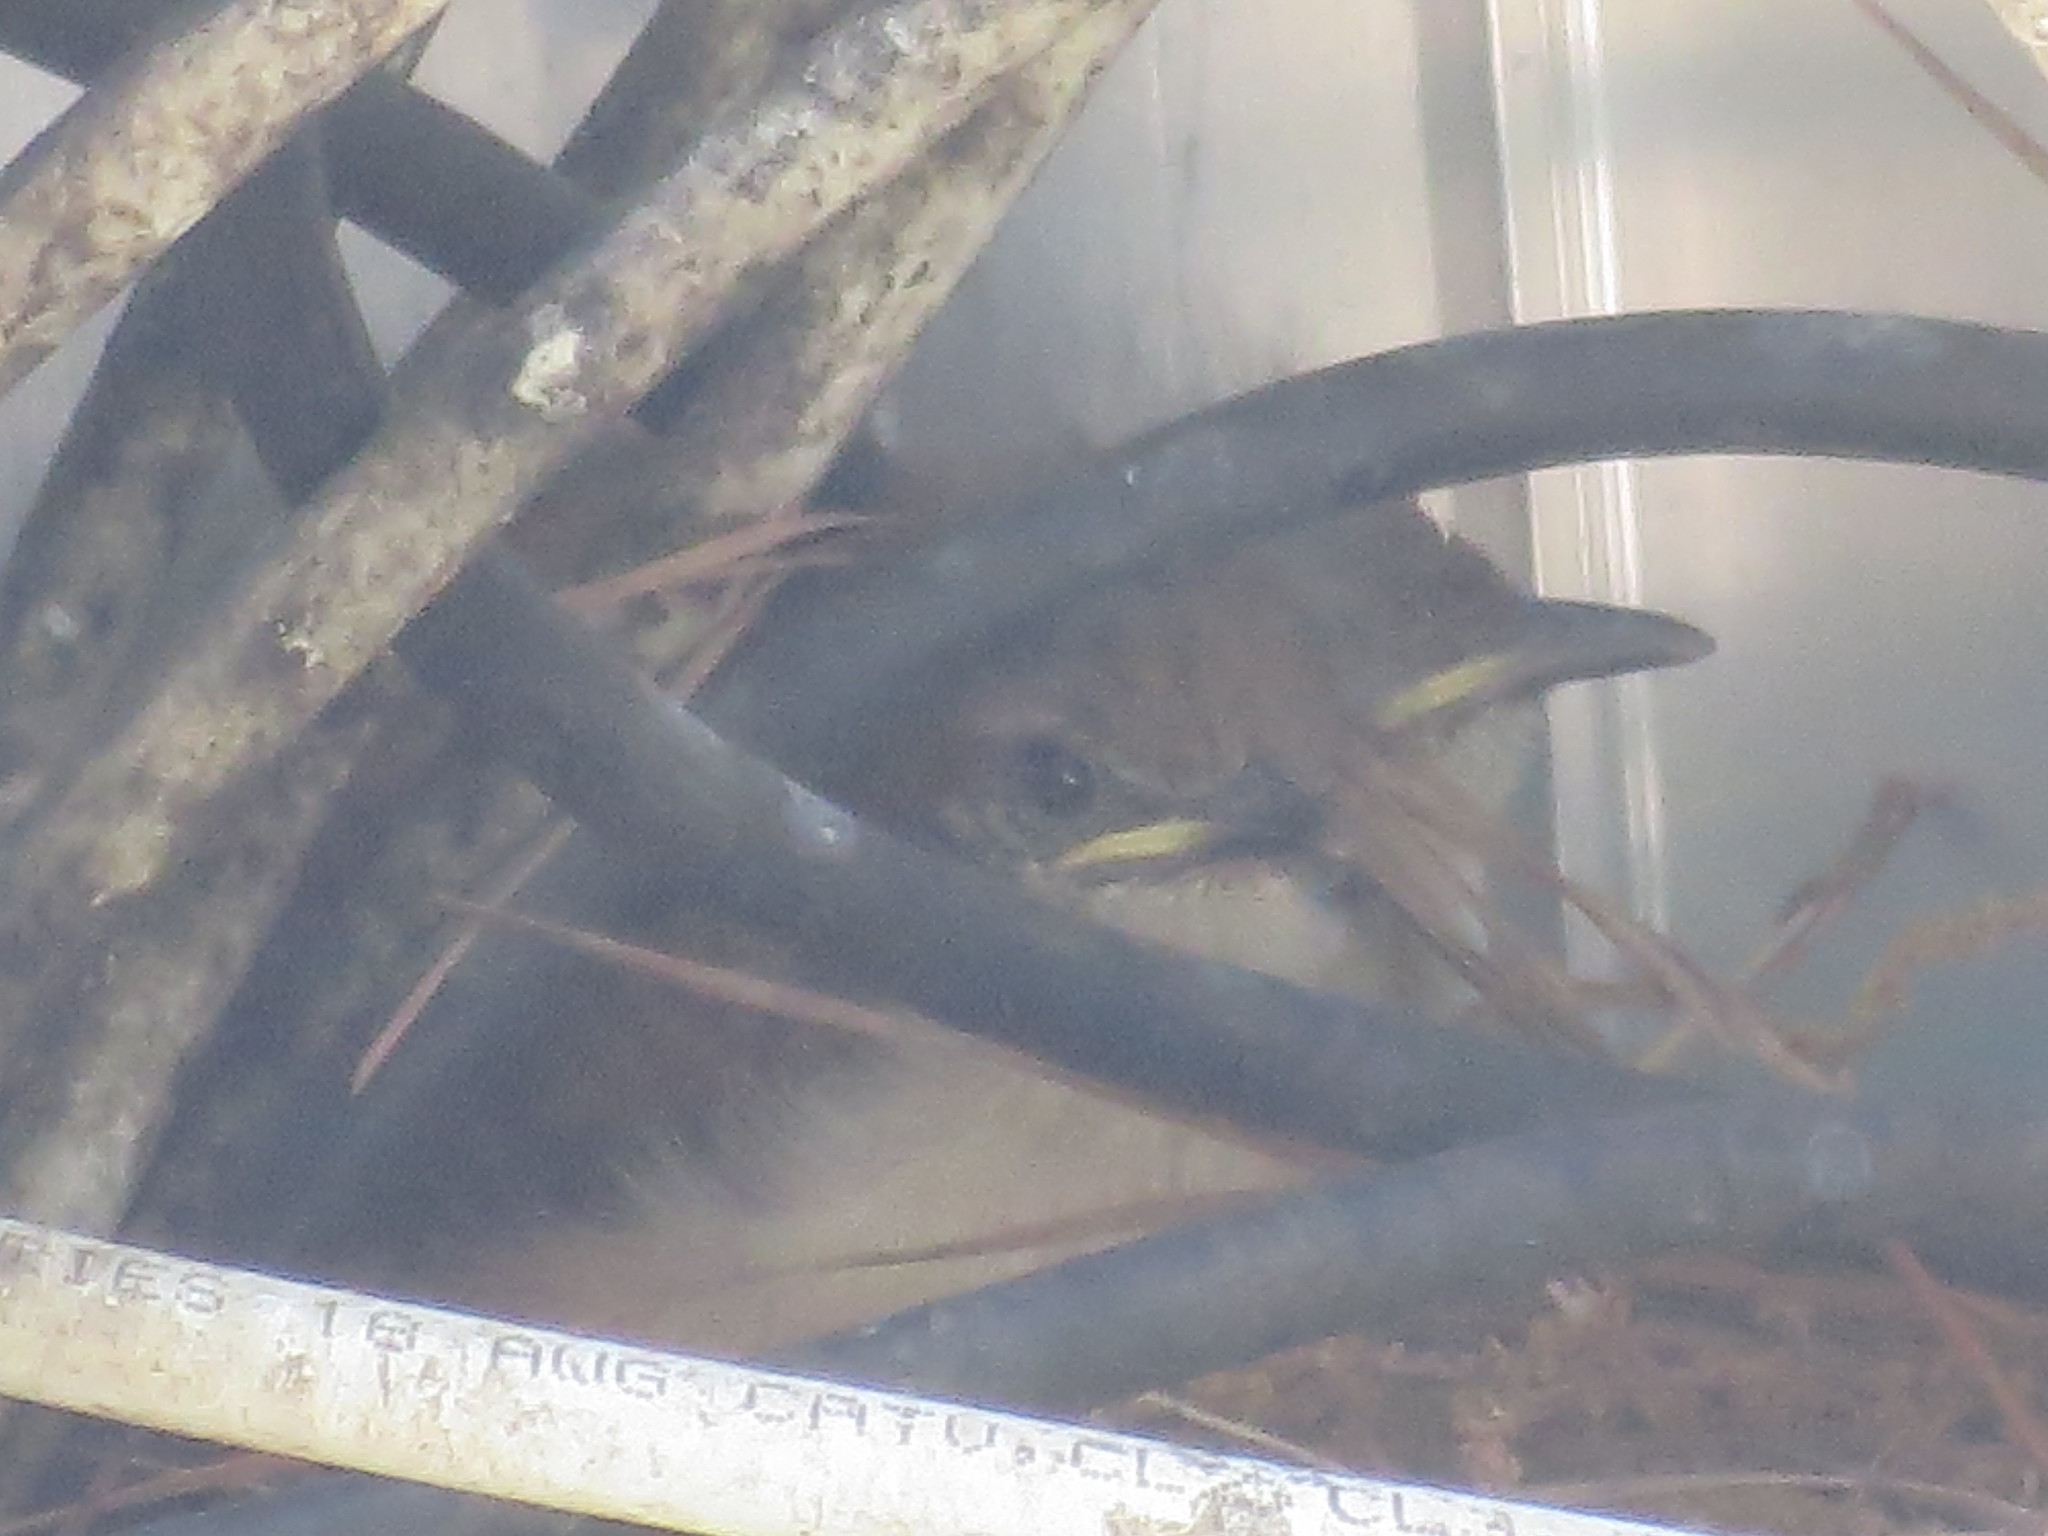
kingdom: Animalia
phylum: Chordata
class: Aves
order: Passeriformes
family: Troglodytidae
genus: Thryothorus
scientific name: Thryothorus ludovicianus
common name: Carolina wren
